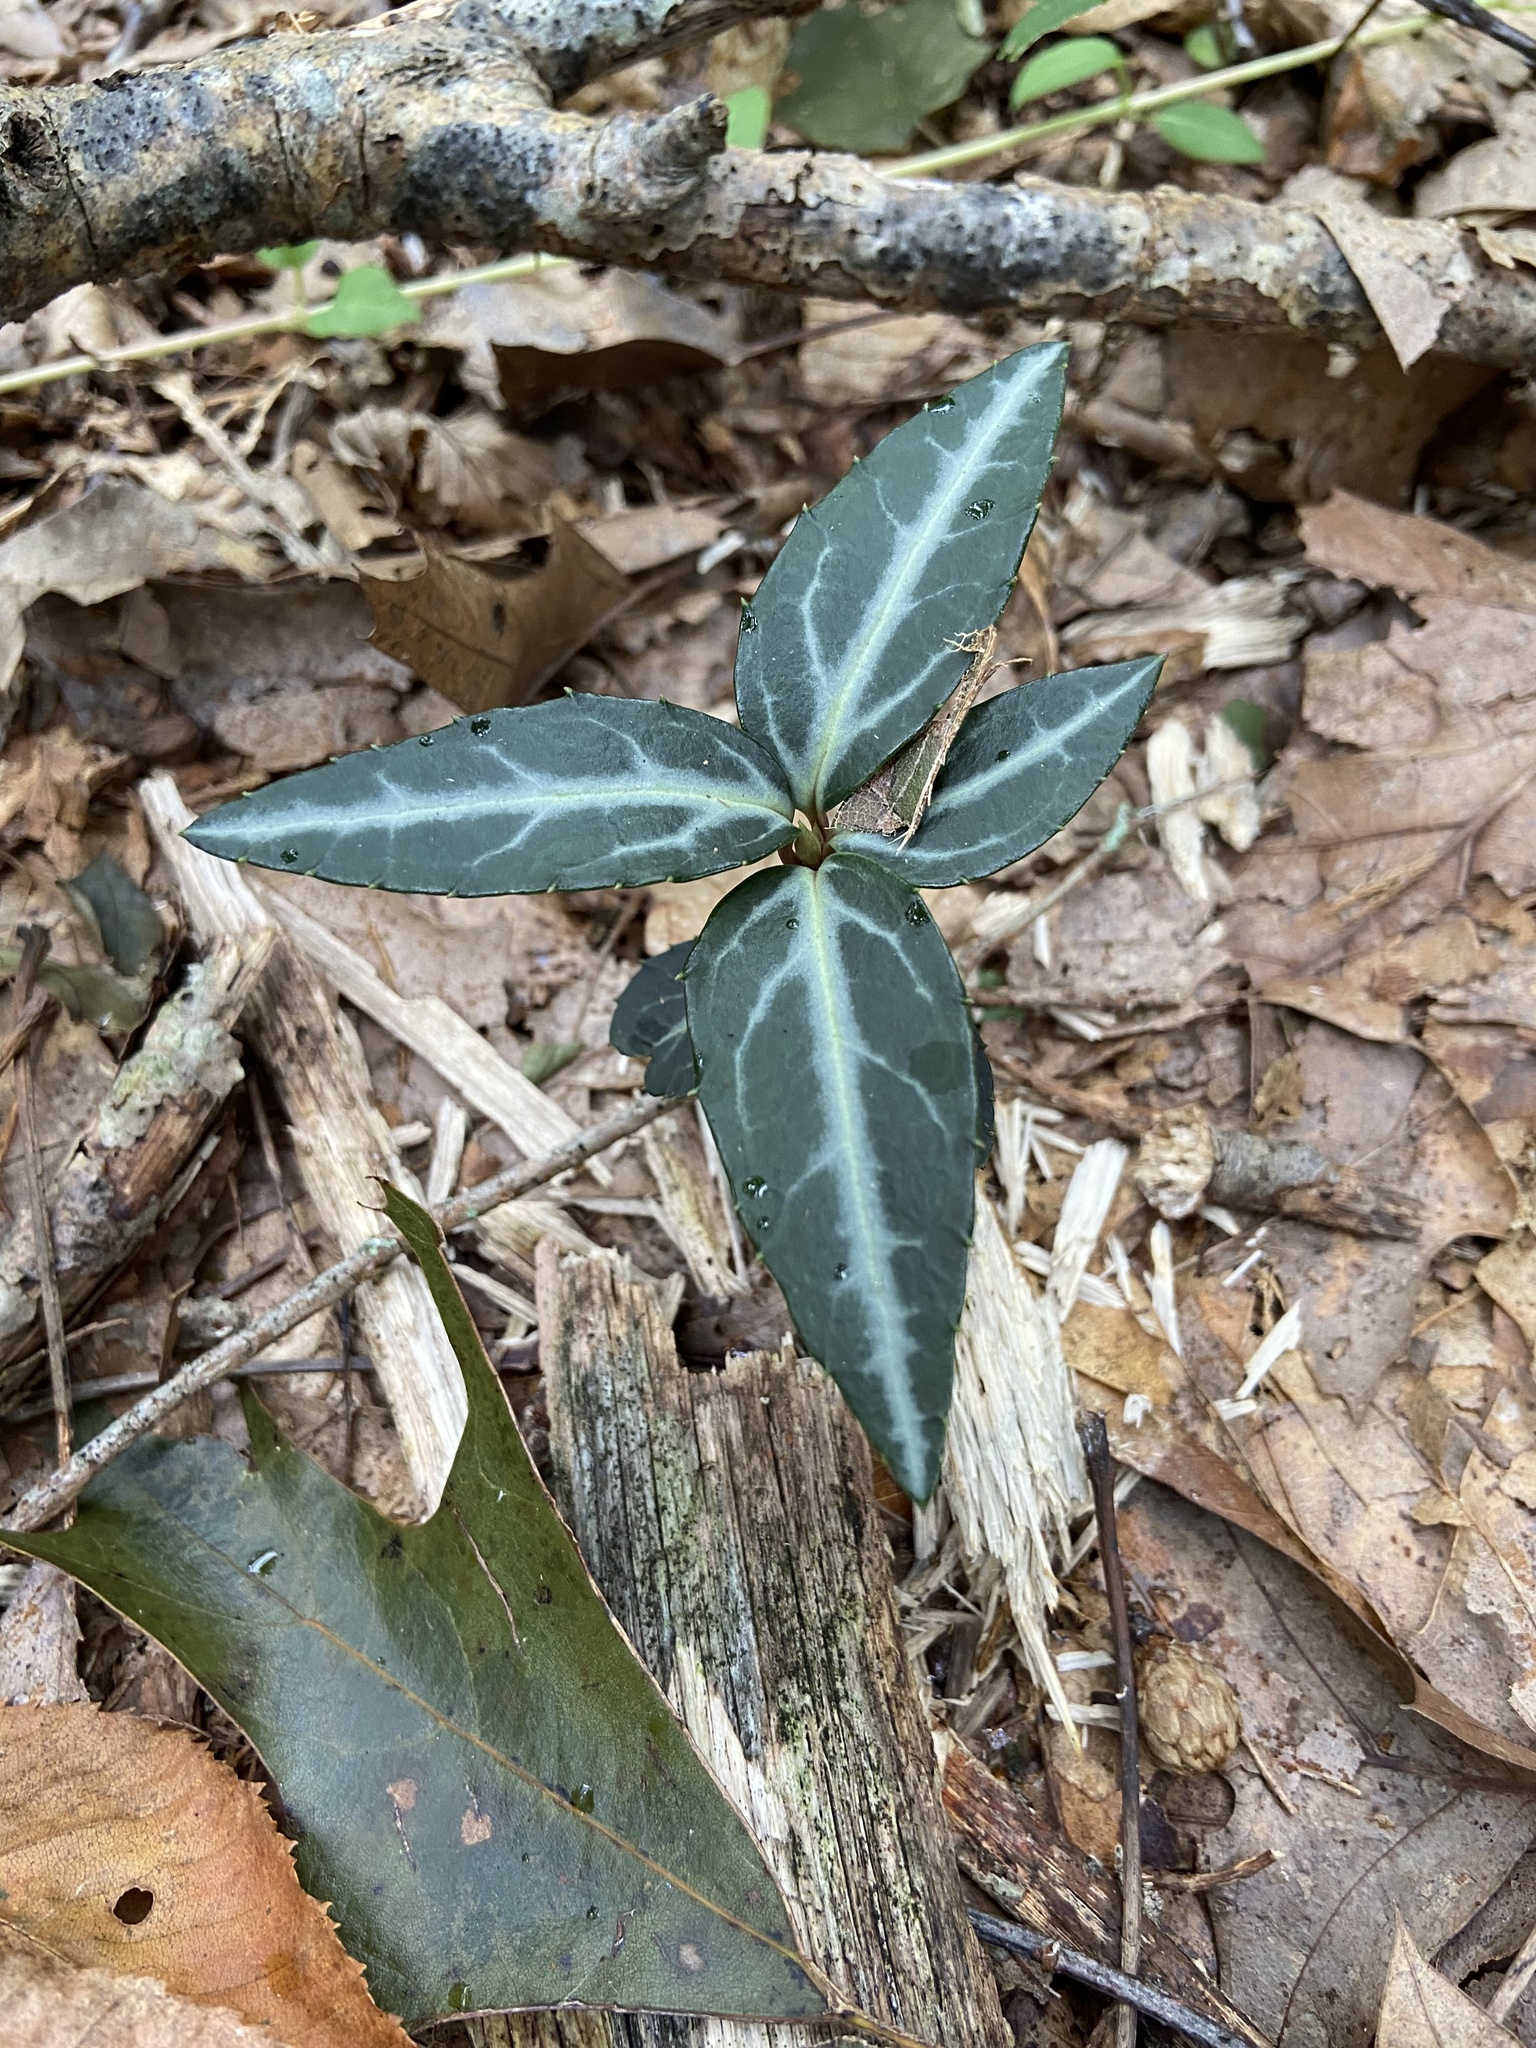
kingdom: Plantae
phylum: Tracheophyta
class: Magnoliopsida
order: Ericales
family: Ericaceae
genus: Chimaphila
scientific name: Chimaphila maculata
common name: Spotted pipsissewa
